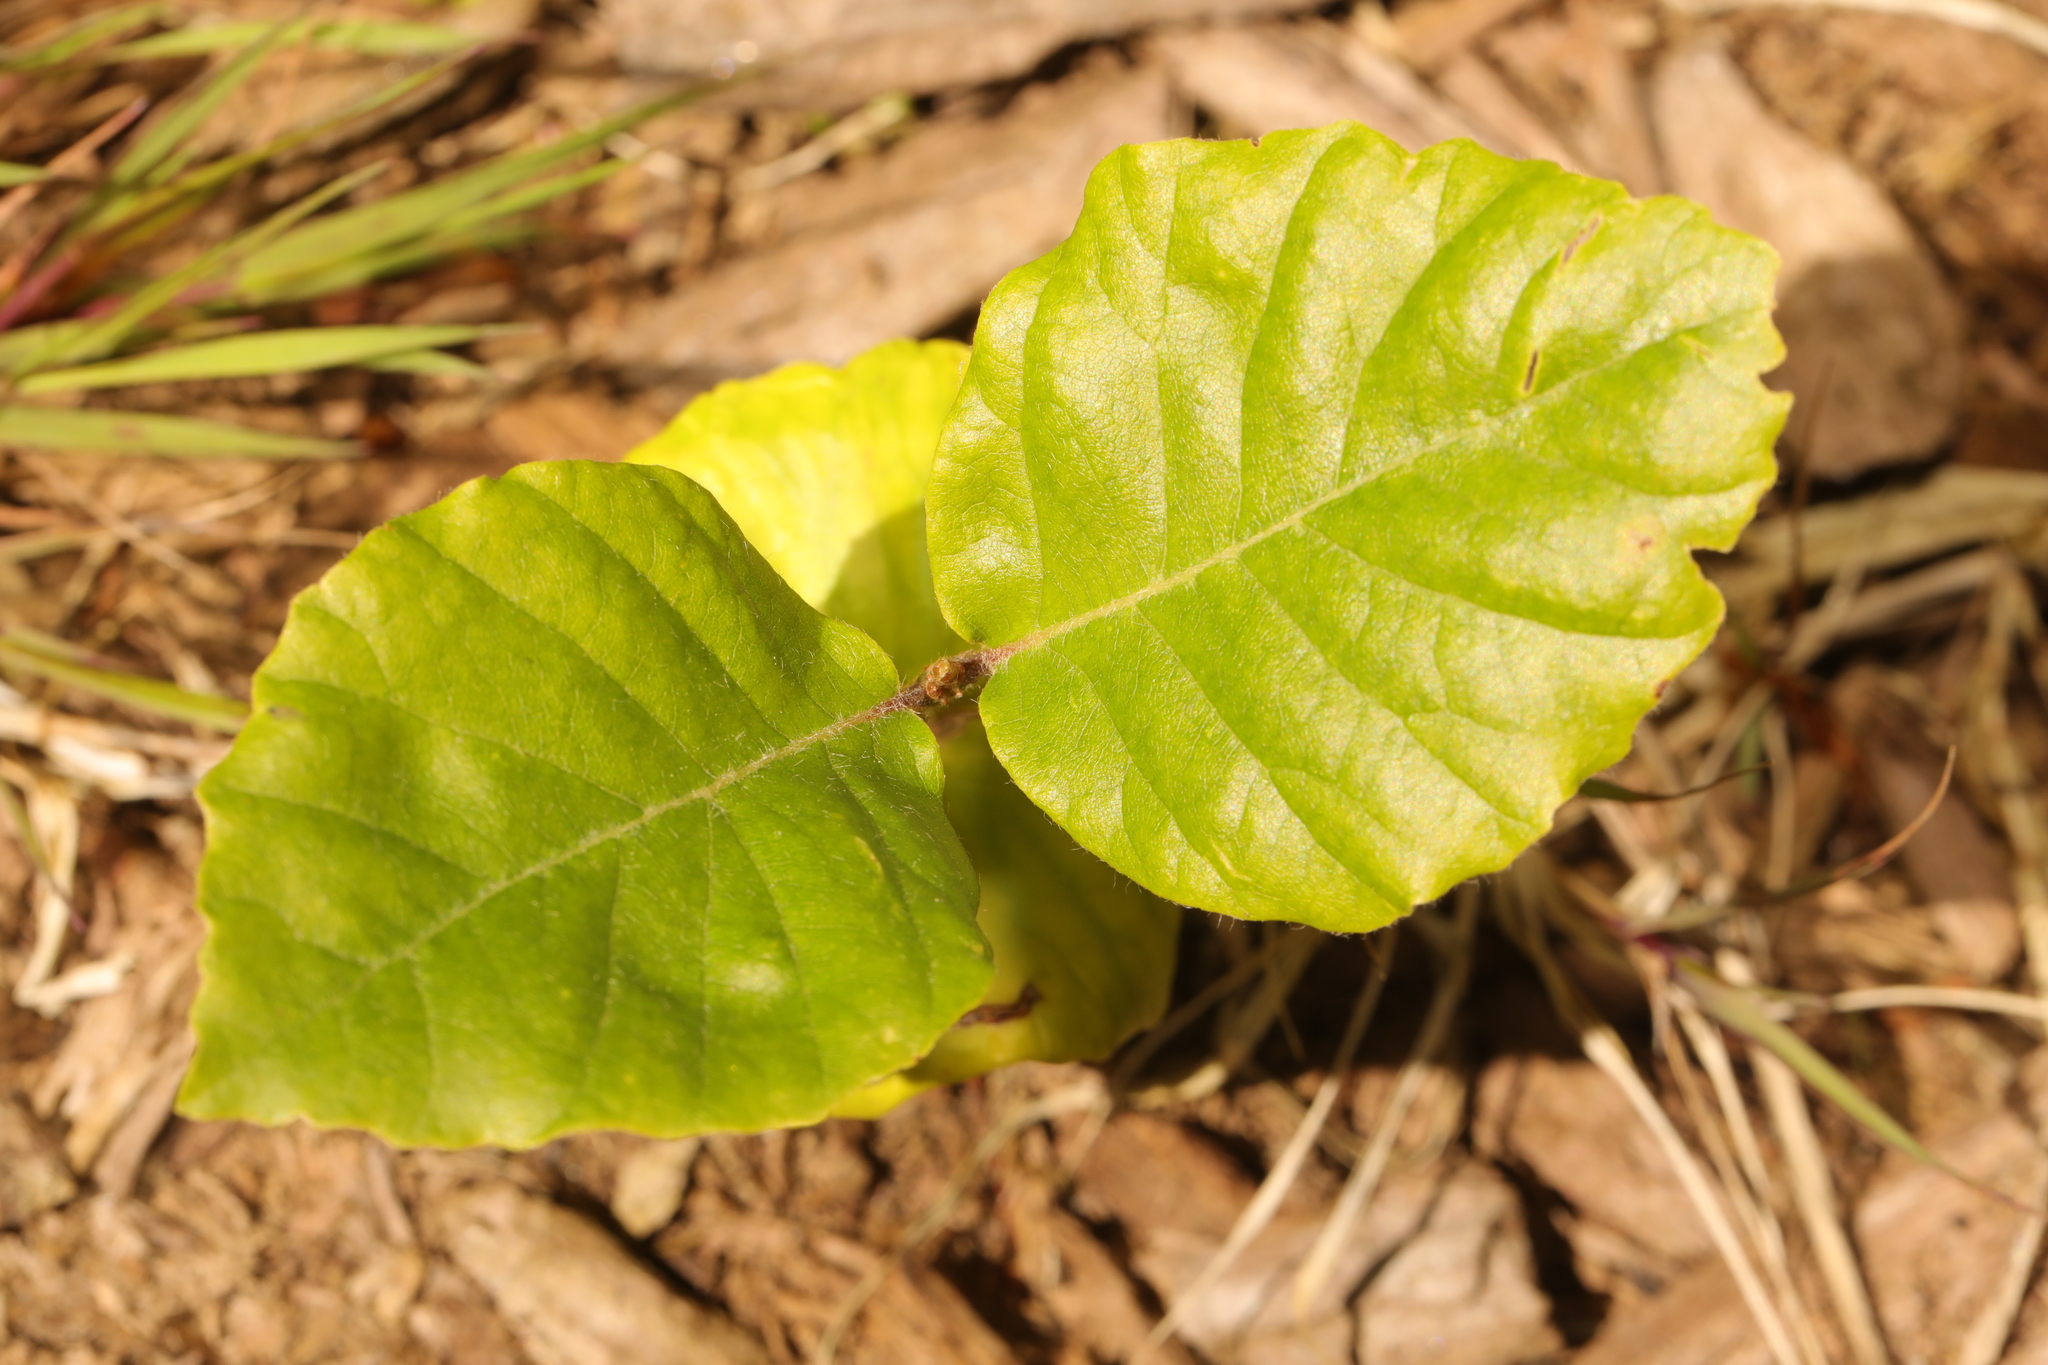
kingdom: Plantae
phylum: Tracheophyta
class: Magnoliopsida
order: Fagales
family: Fagaceae
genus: Fagus
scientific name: Fagus sylvatica
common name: Beech
